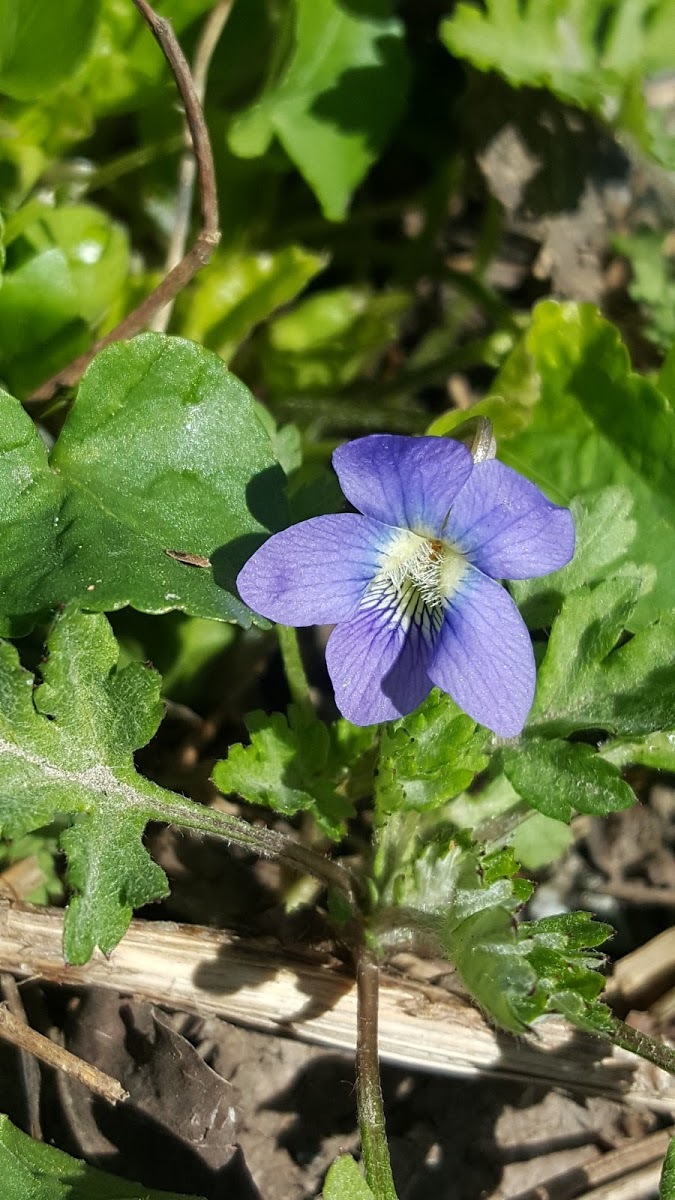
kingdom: Plantae
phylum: Tracheophyta
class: Magnoliopsida
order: Malpighiales
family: Violaceae
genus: Viola
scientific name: Viola sororia
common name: Dooryard violet
